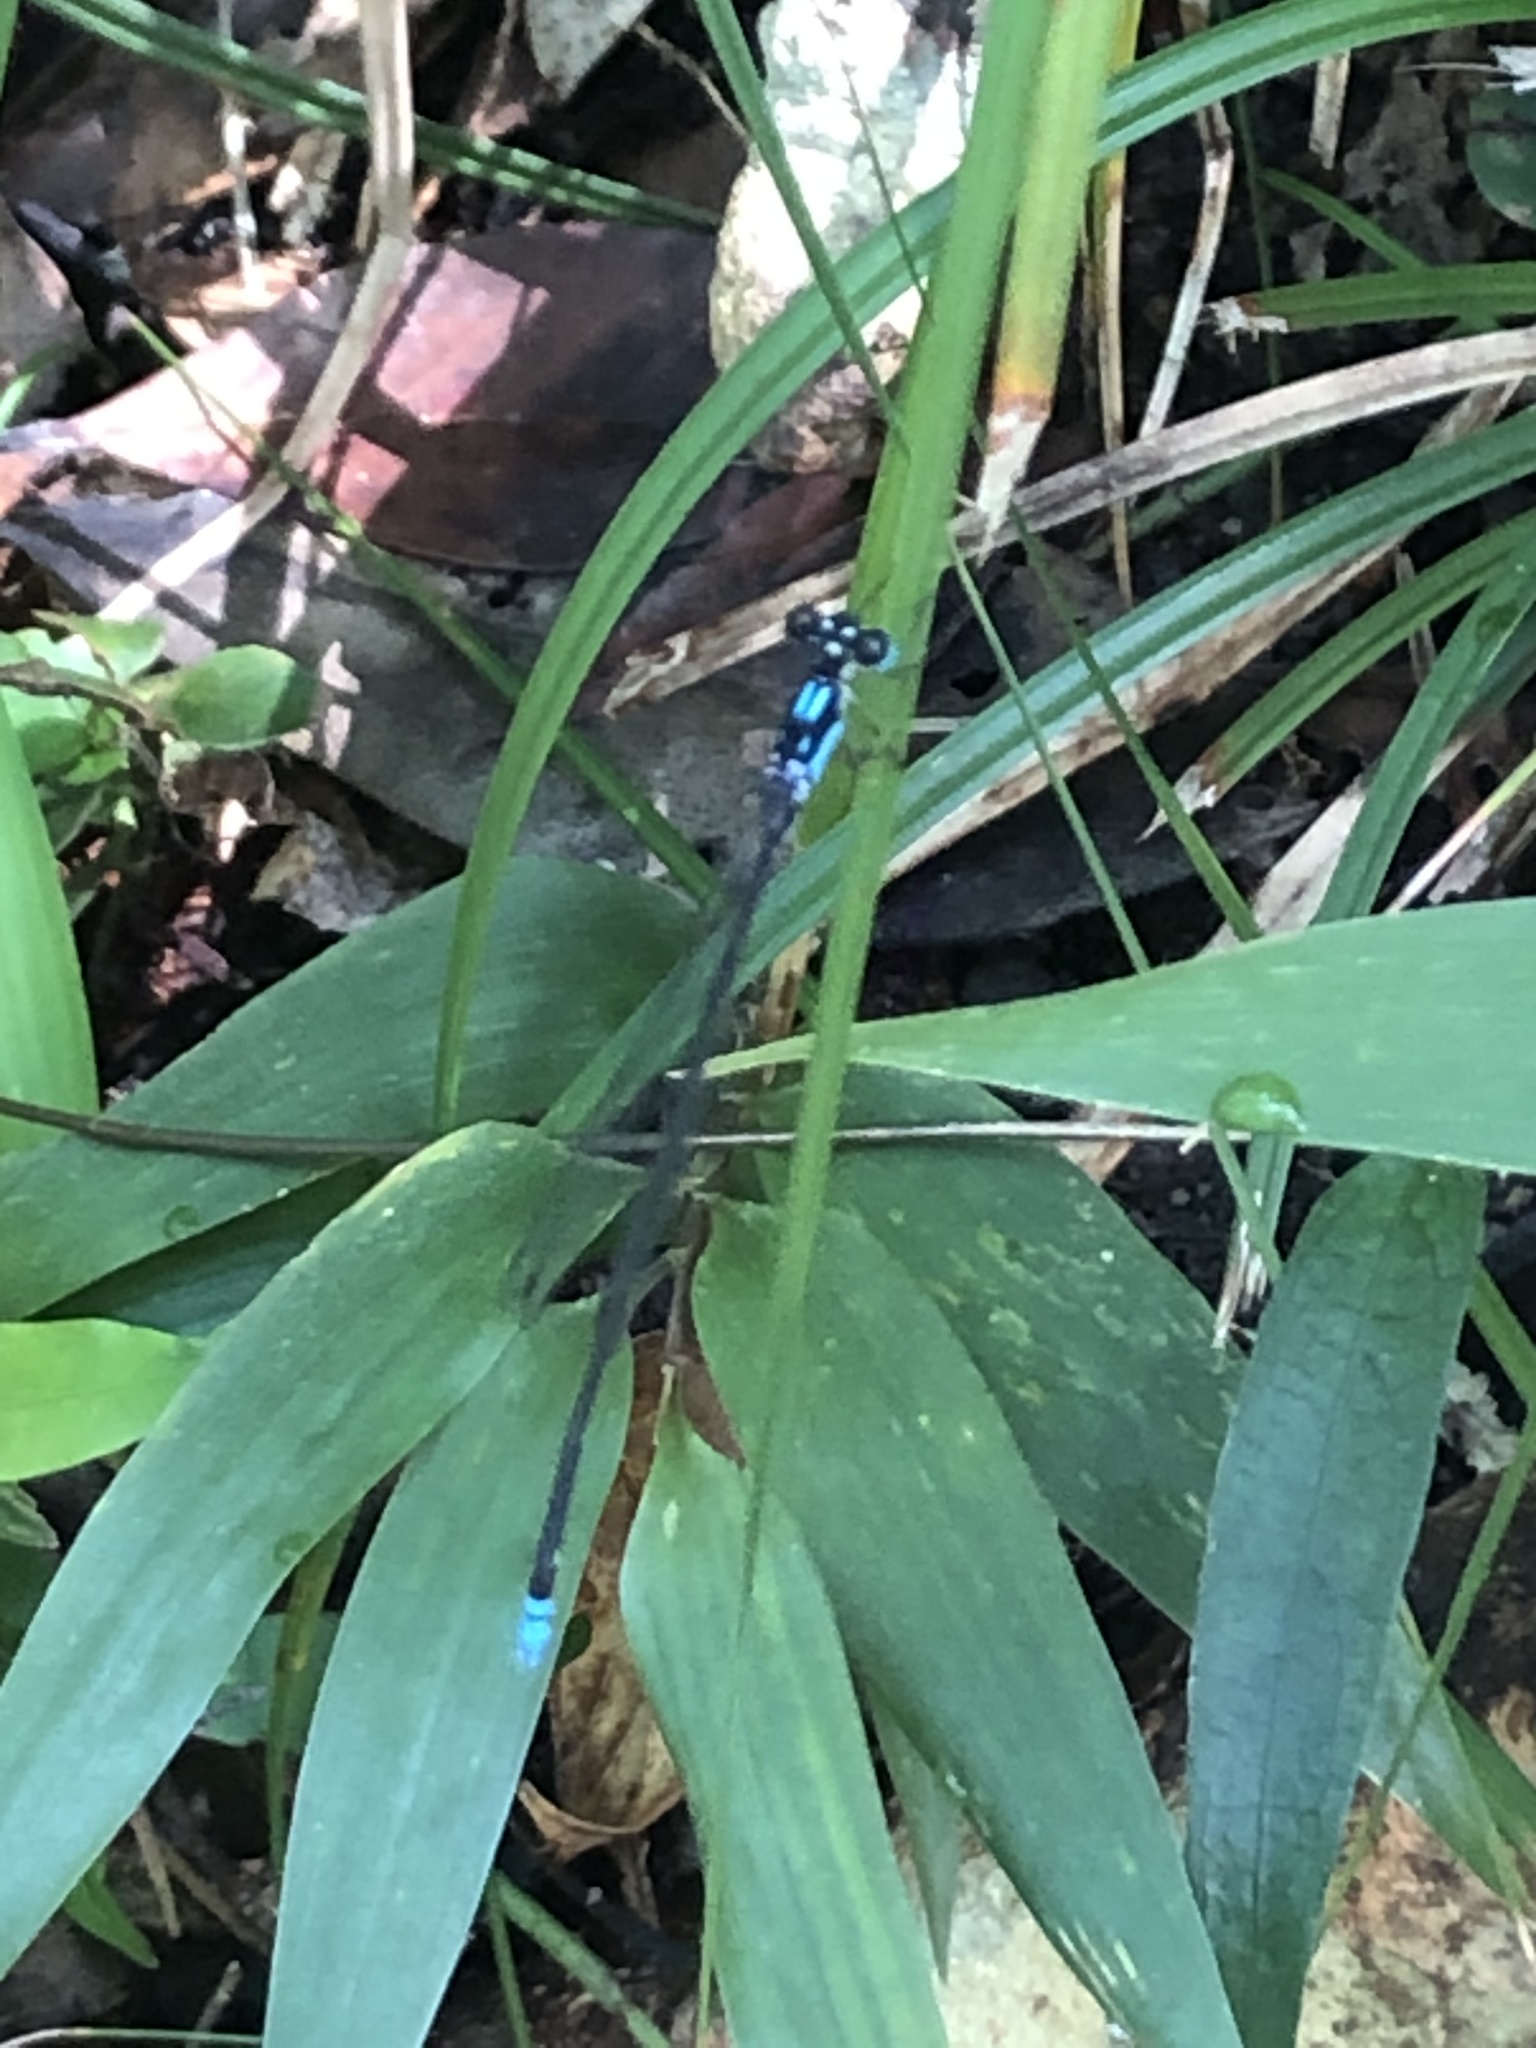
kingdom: Animalia
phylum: Arthropoda
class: Insecta
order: Odonata
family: Platycnemididae
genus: Coeliccia
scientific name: Coeliccia cyanomelas
